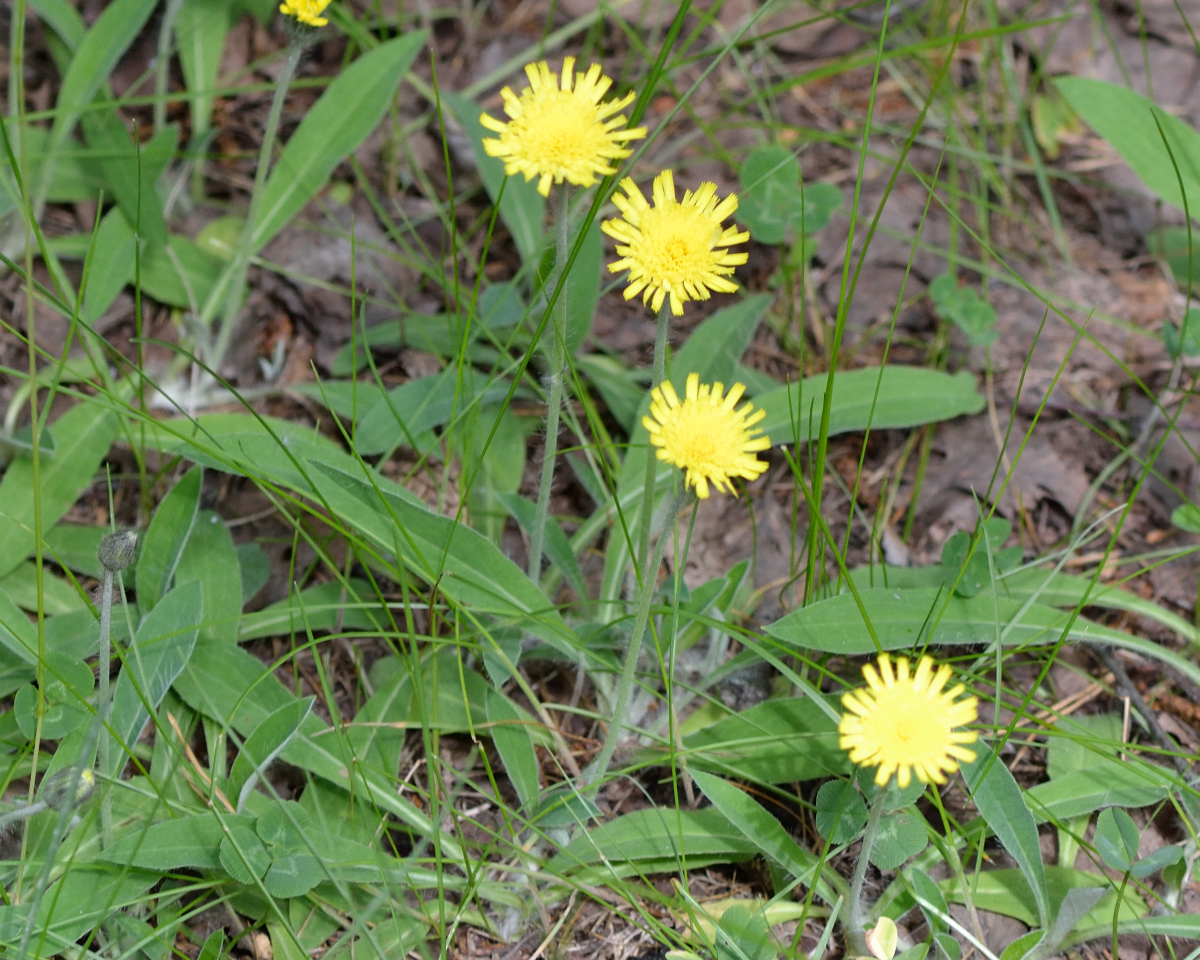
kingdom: Plantae
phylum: Tracheophyta
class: Magnoliopsida
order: Asterales
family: Asteraceae
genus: Pilosella
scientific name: Pilosella officinarum
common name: Mouse-ear hawkweed
